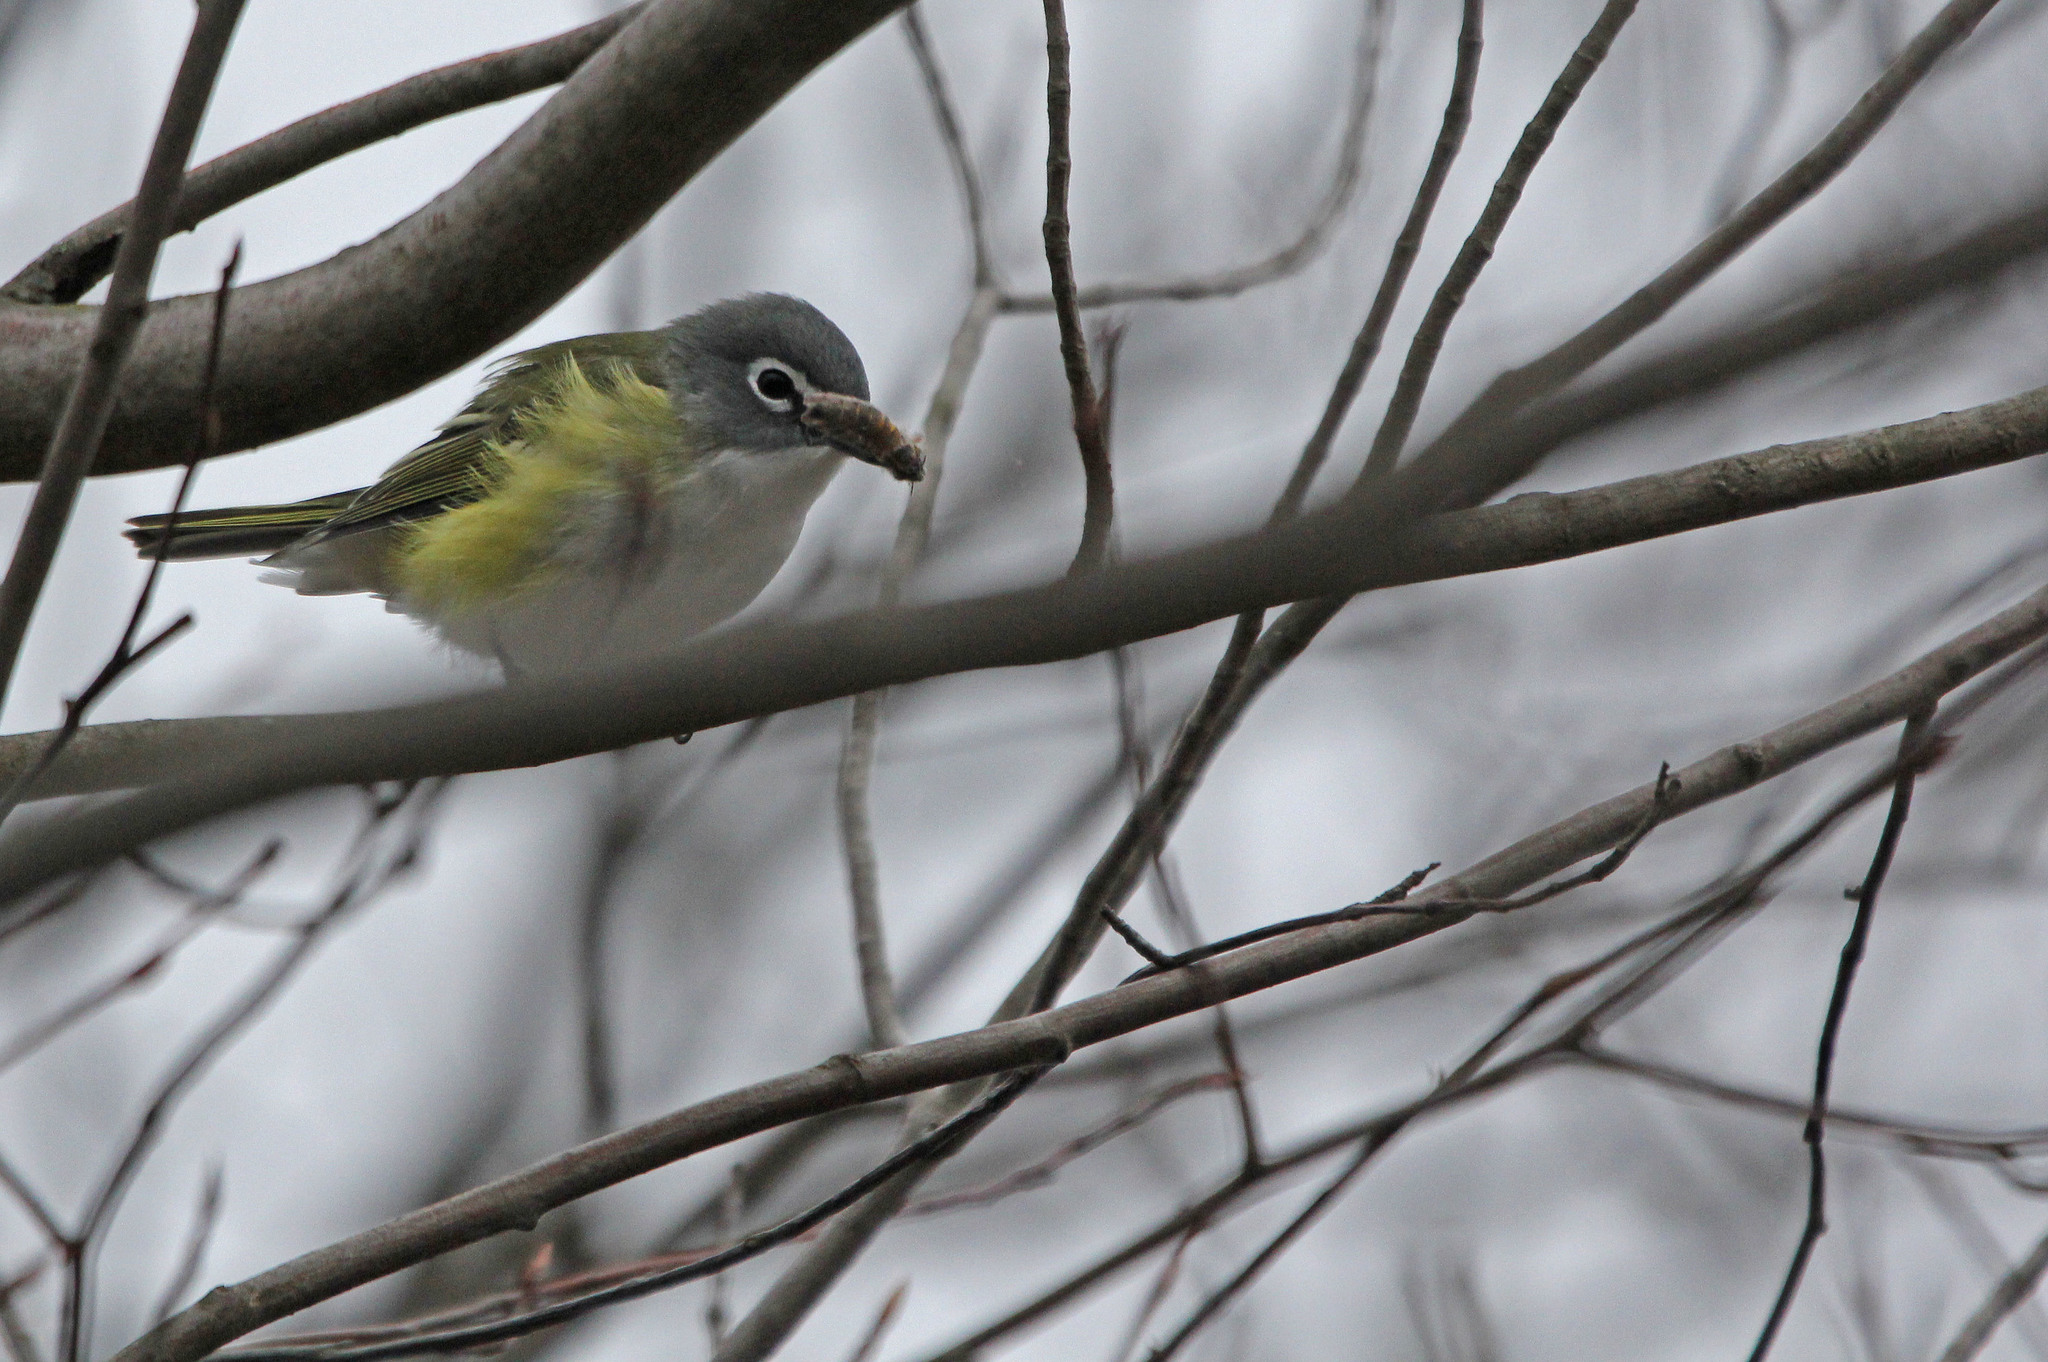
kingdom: Animalia
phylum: Chordata
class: Aves
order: Passeriformes
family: Vireonidae
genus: Vireo
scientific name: Vireo solitarius
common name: Blue-headed vireo
